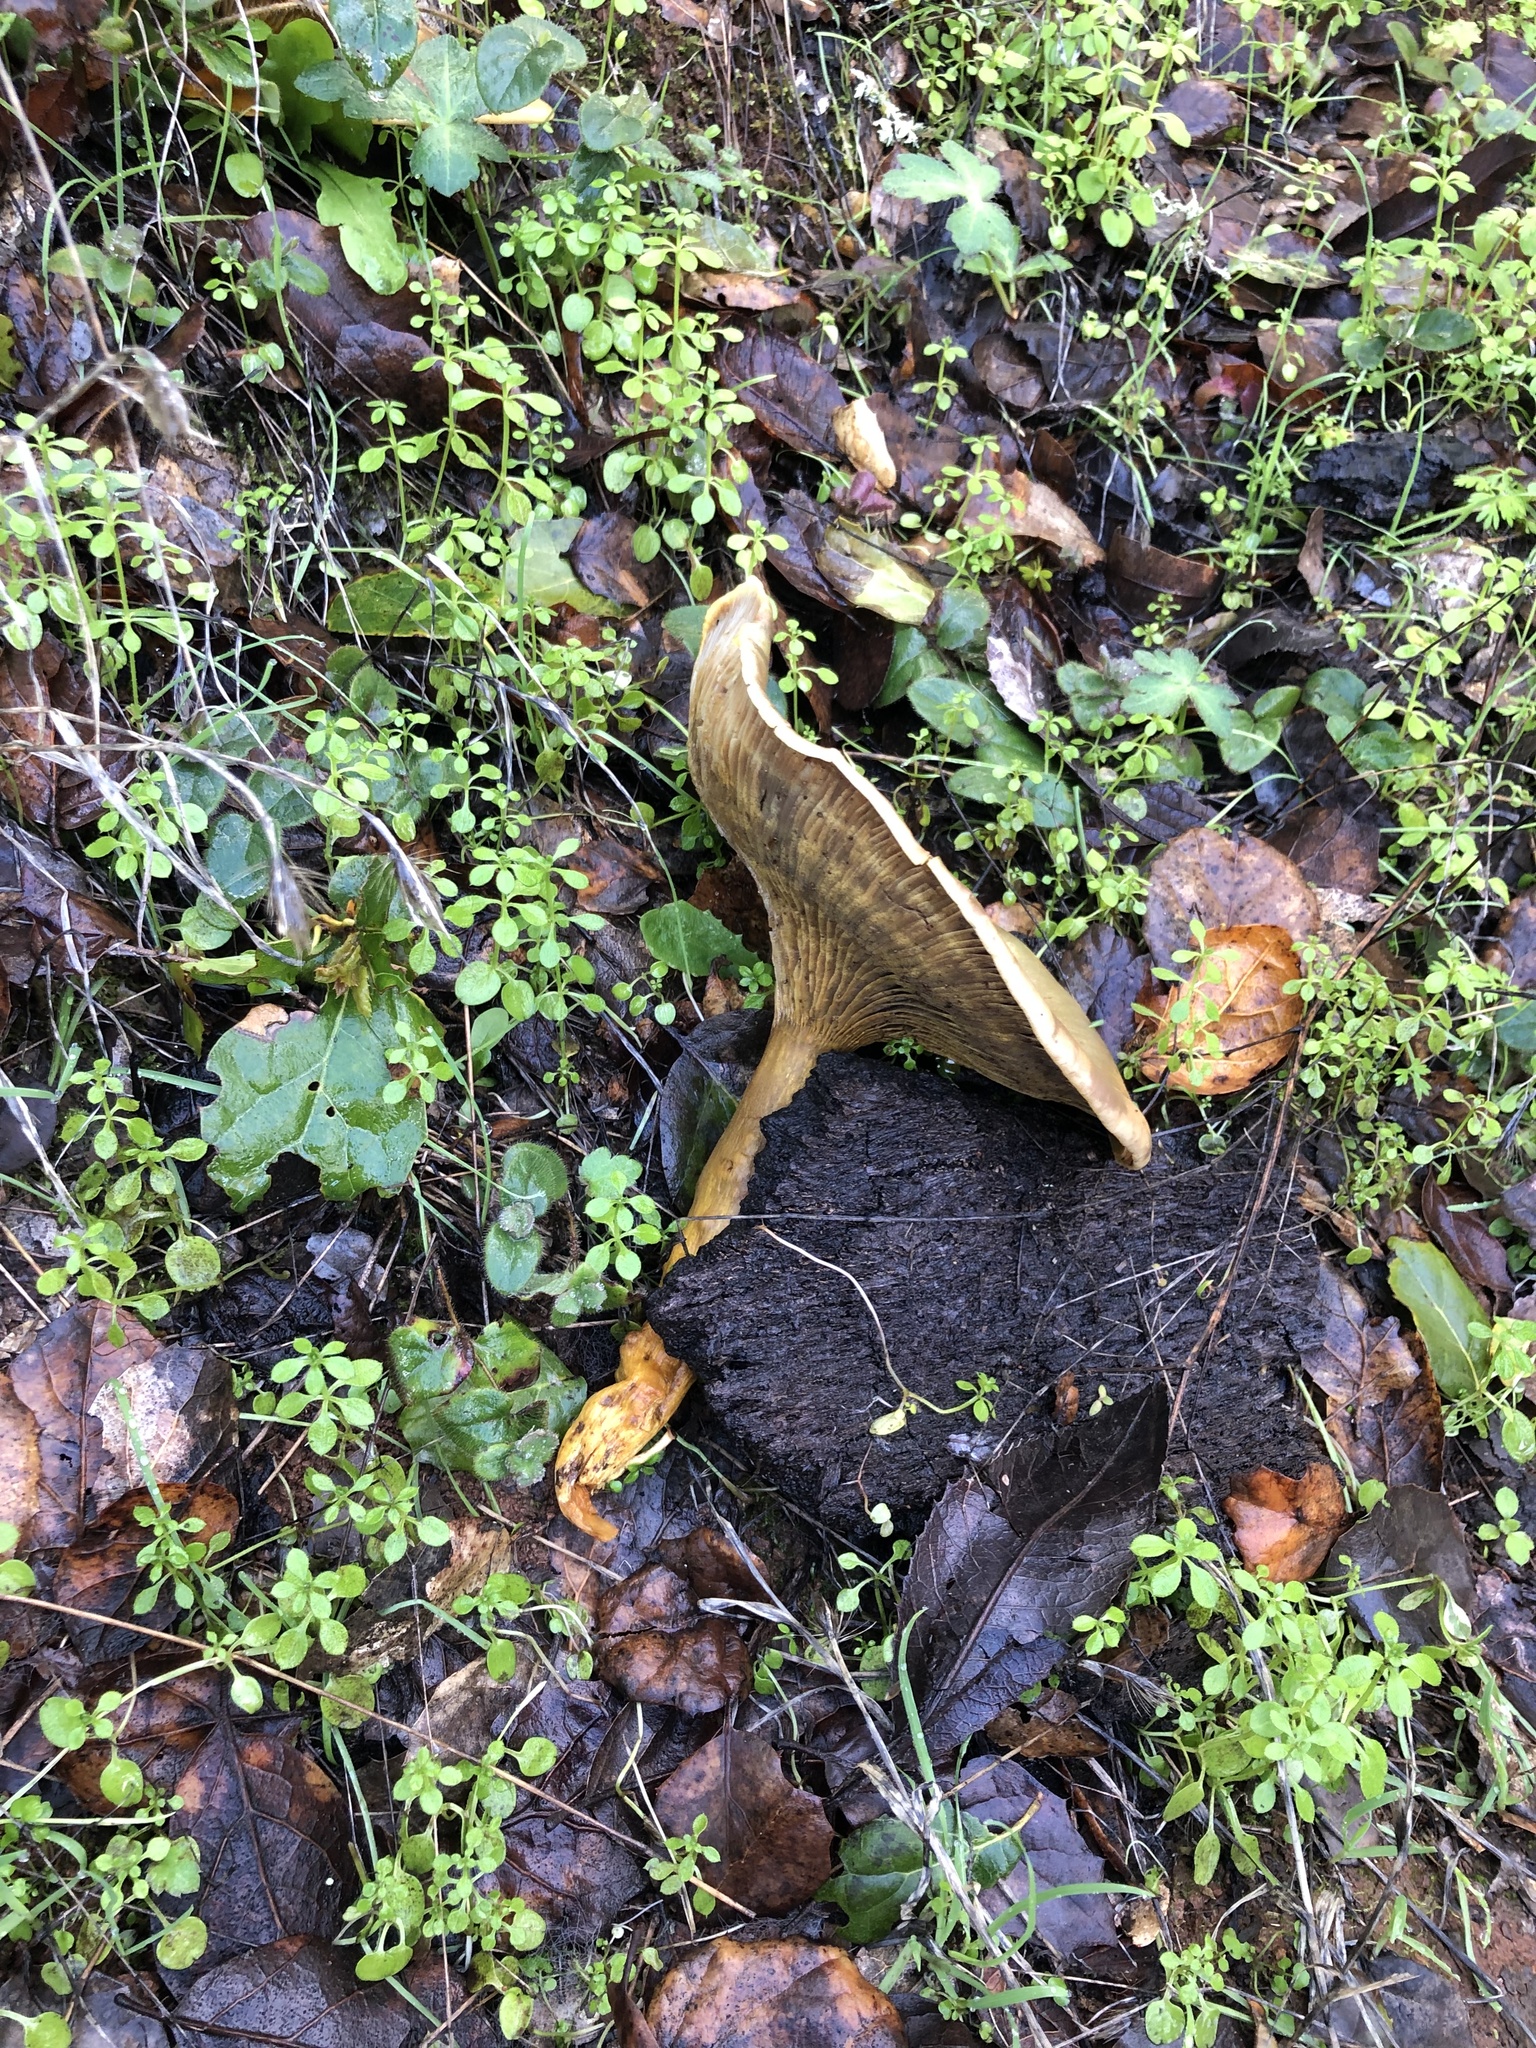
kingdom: Fungi
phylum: Basidiomycota
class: Agaricomycetes
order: Agaricales
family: Omphalotaceae
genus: Omphalotus
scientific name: Omphalotus olivascens
